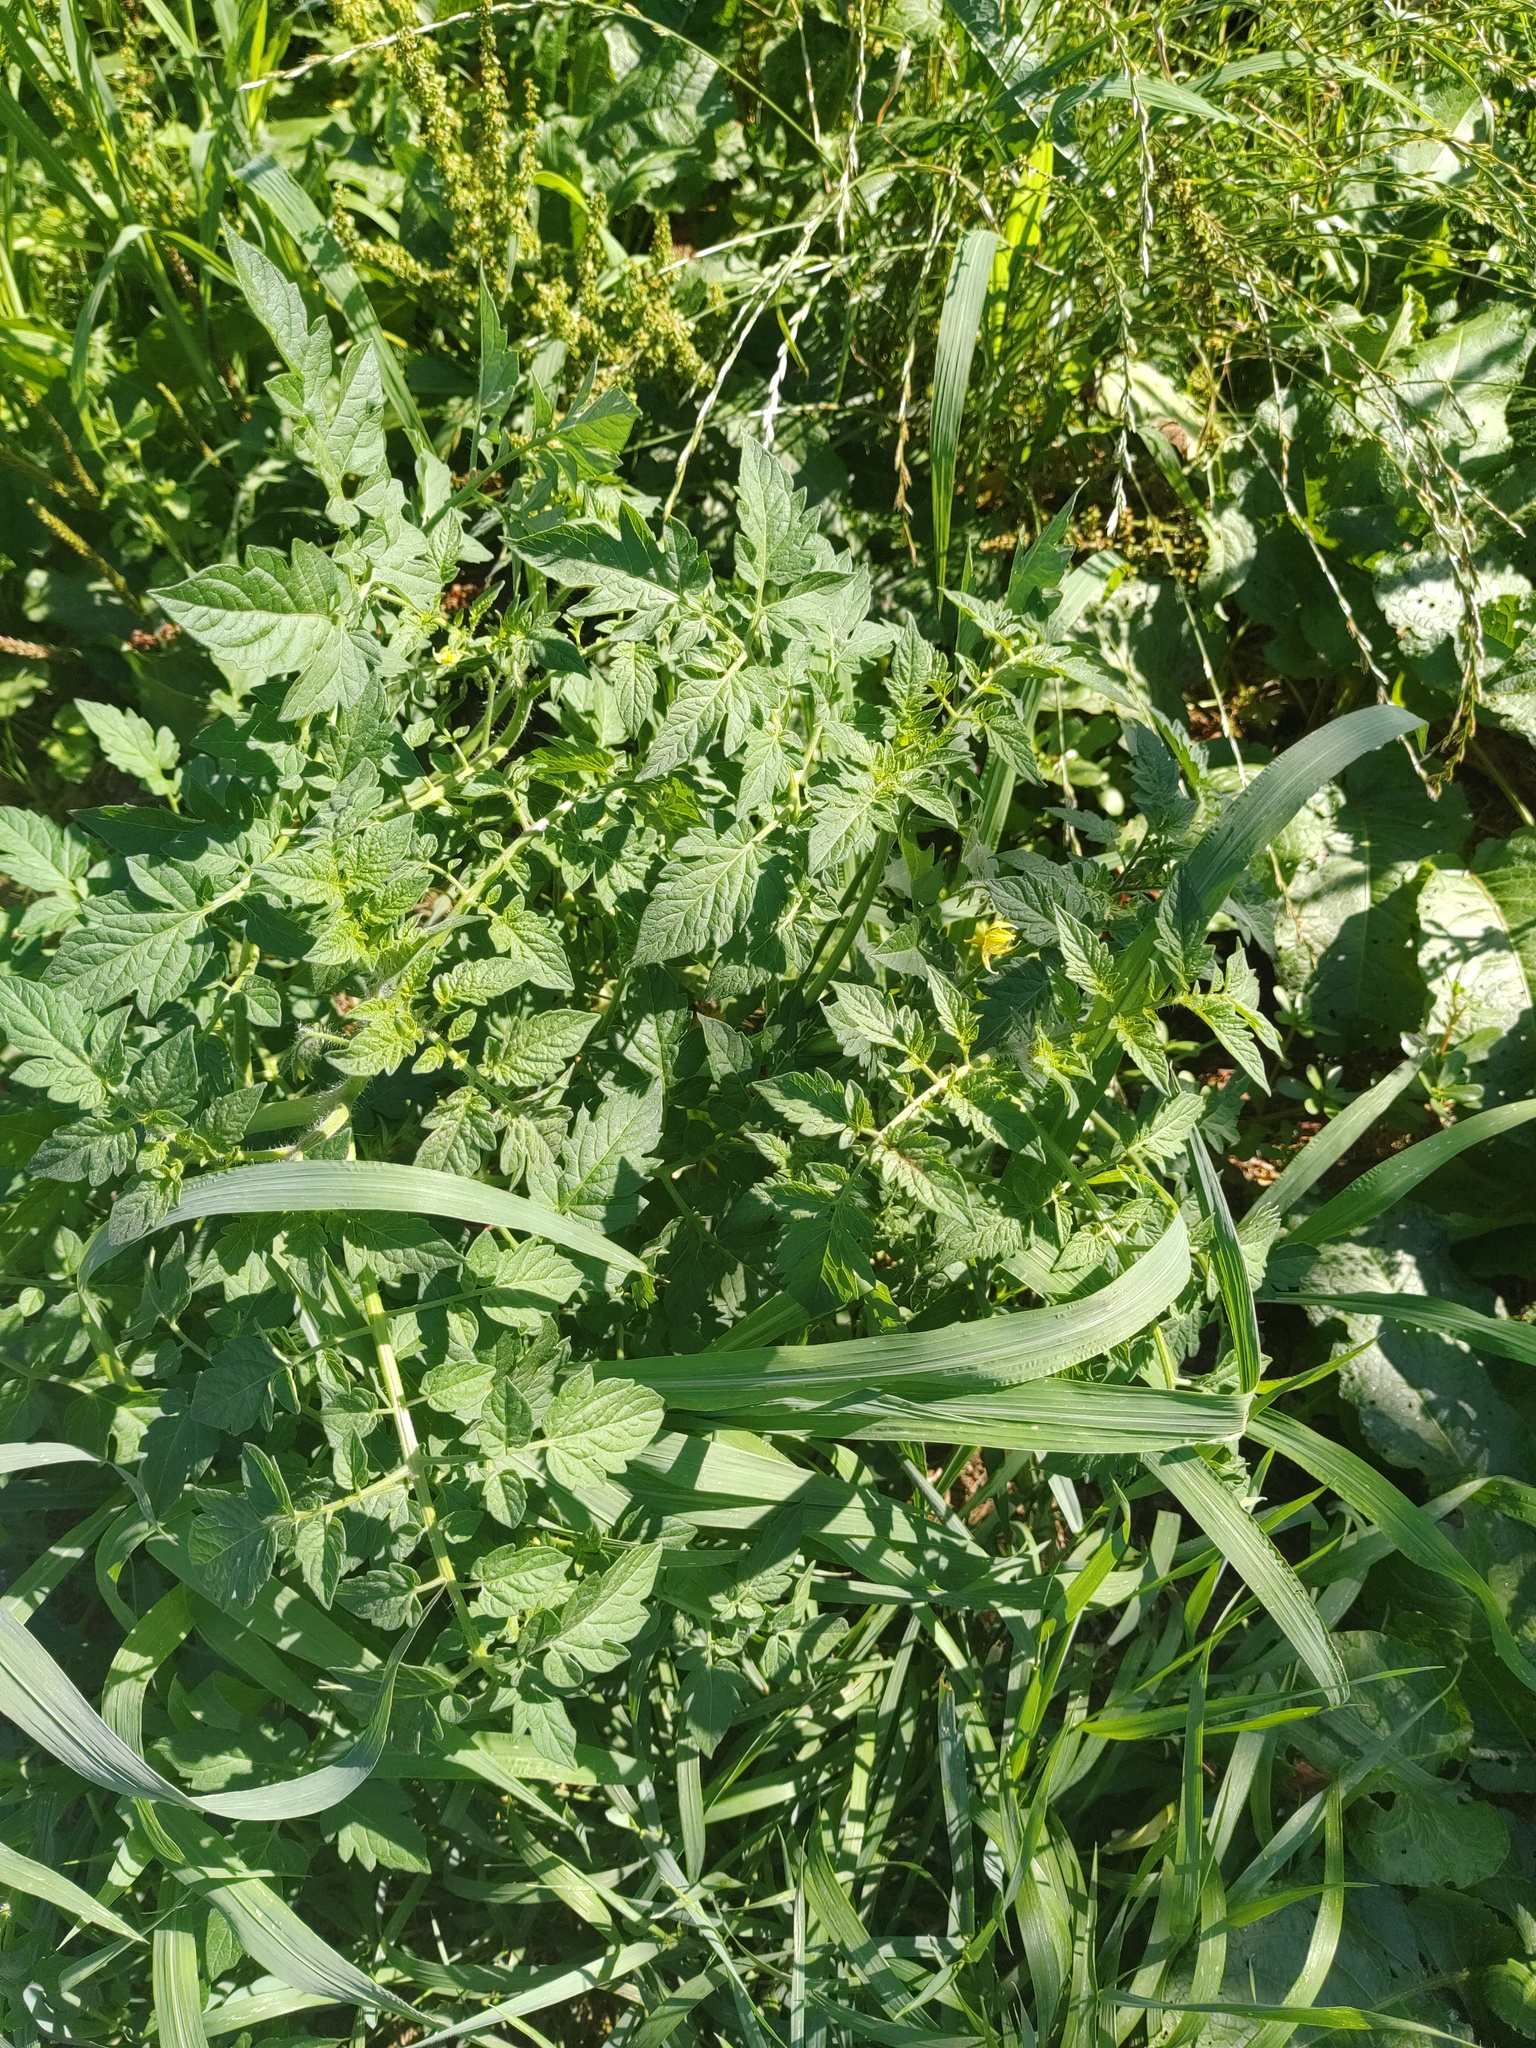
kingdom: Plantae
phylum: Tracheophyta
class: Magnoliopsida
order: Solanales
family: Solanaceae
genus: Solanum
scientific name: Solanum lycopersicum
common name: Garden tomato
